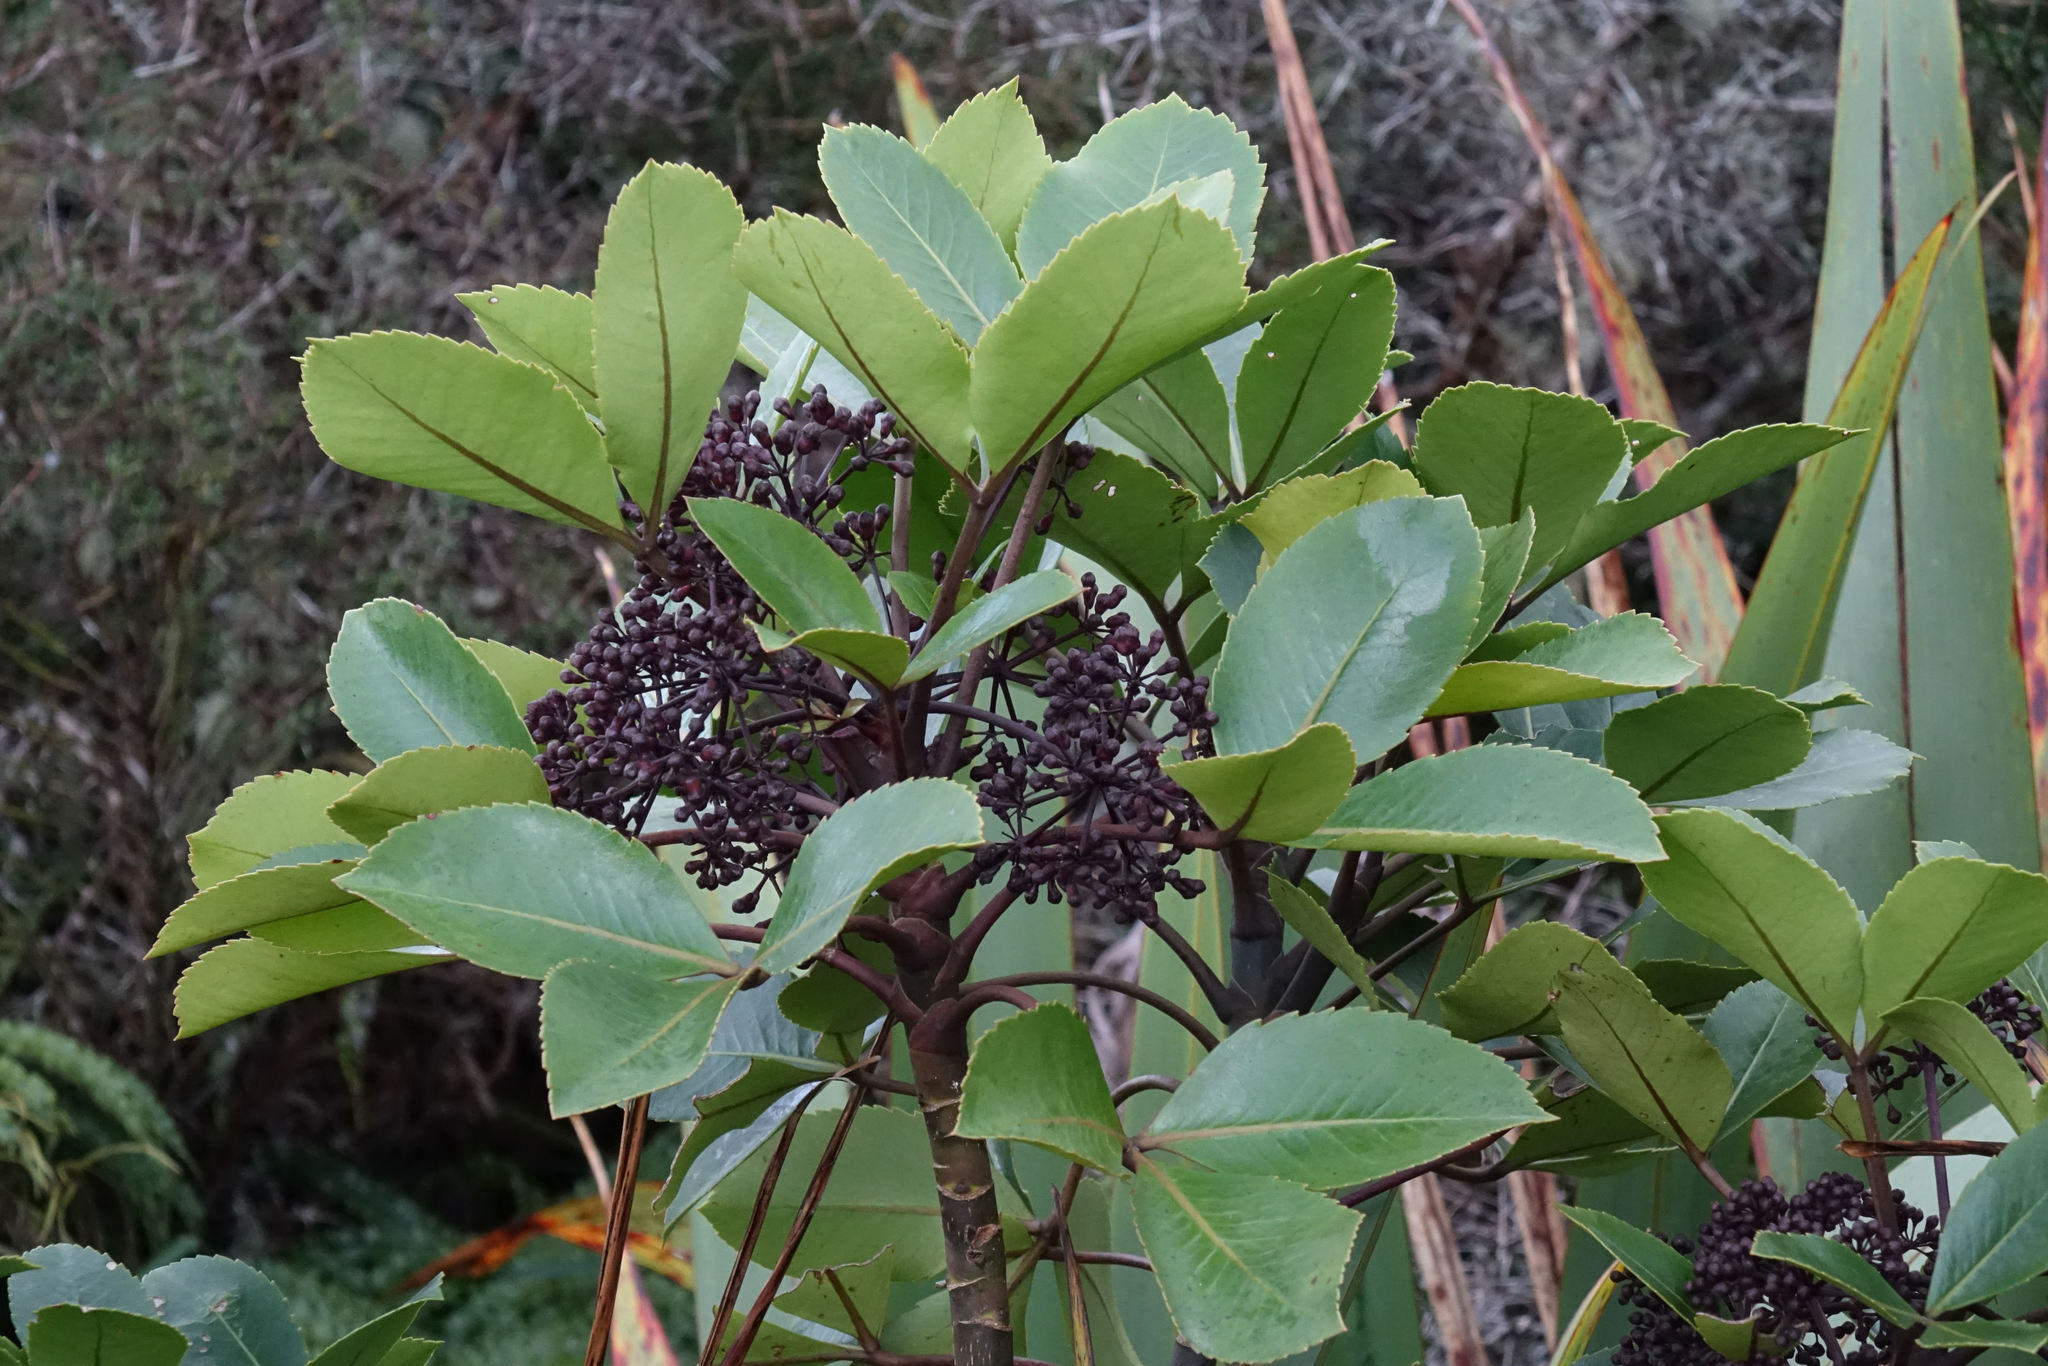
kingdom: Plantae
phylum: Tracheophyta
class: Magnoliopsida
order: Apiales
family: Araliaceae
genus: Neopanax
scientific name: Neopanax colensoi
